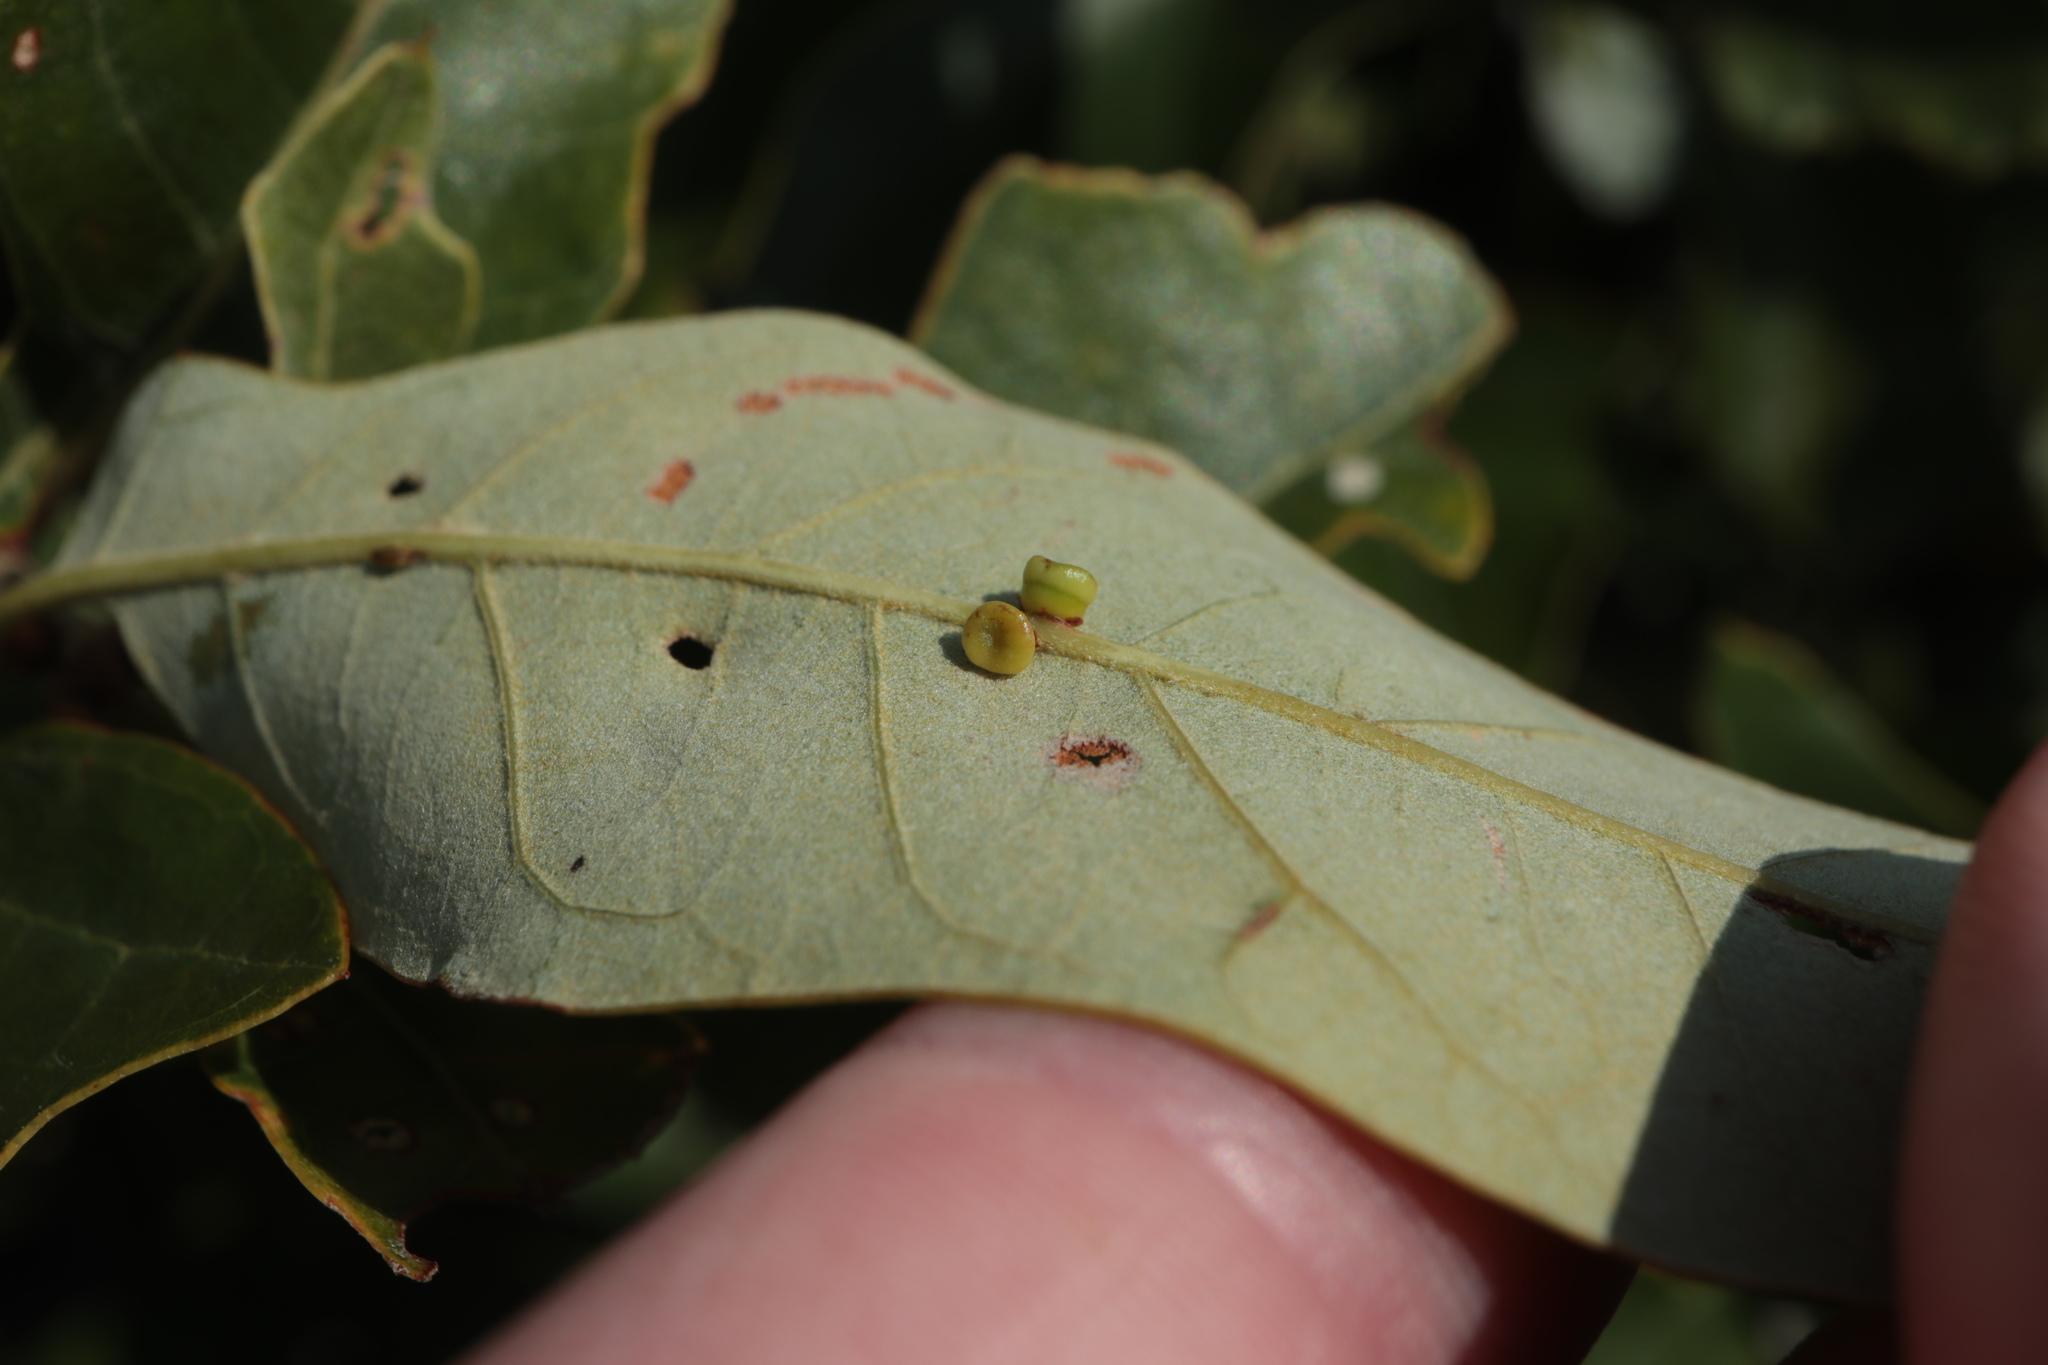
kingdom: Animalia
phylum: Arthropoda
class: Insecta
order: Hymenoptera
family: Cynipidae
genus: Kokkocynips
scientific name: Kokkocynips rileyi
